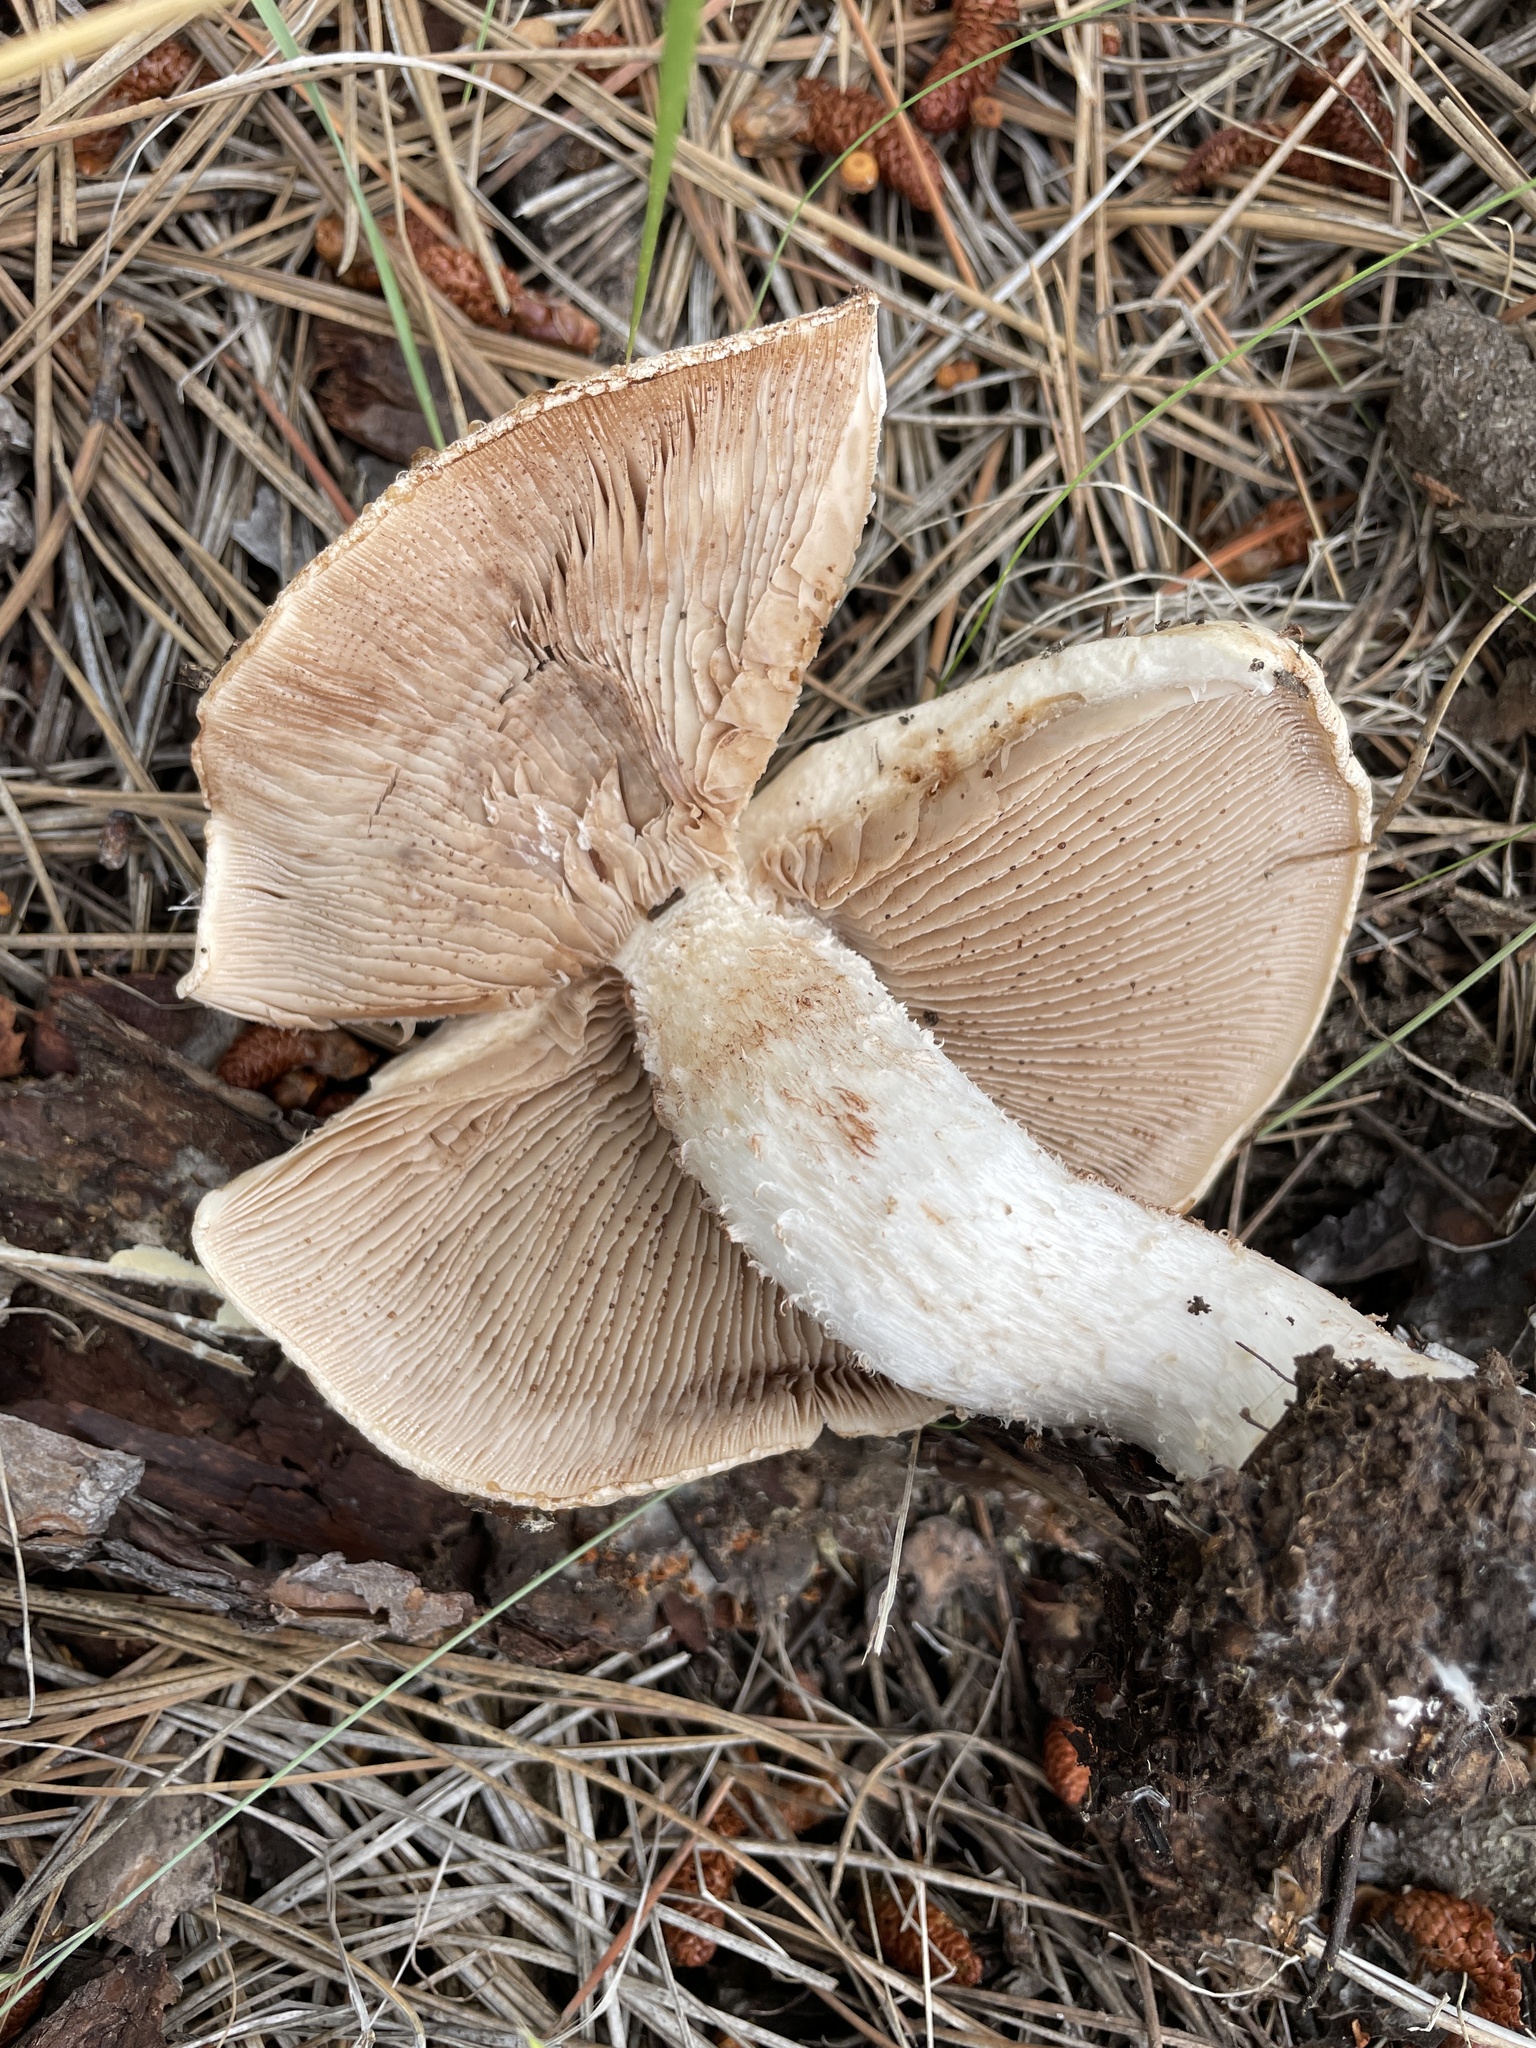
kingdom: Fungi
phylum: Basidiomycota
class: Agaricomycetes
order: Agaricales
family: Hymenogastraceae
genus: Hebeloma
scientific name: Hebeloma albomarginatum
